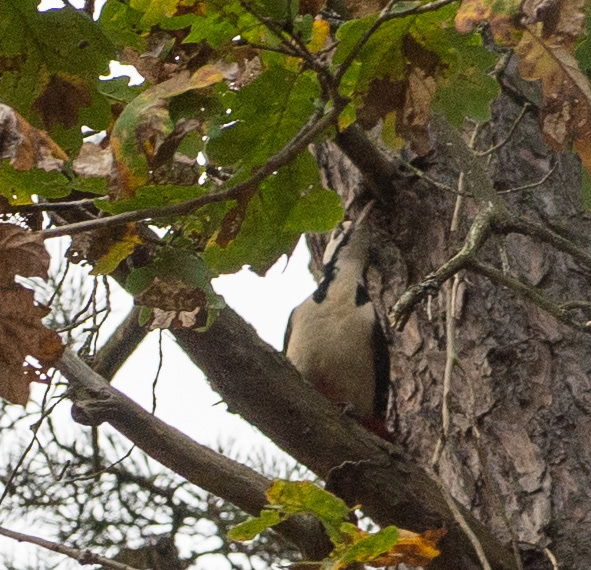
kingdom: Animalia
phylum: Chordata
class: Aves
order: Piciformes
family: Picidae
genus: Dendrocopos
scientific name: Dendrocopos major
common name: Great spotted woodpecker
